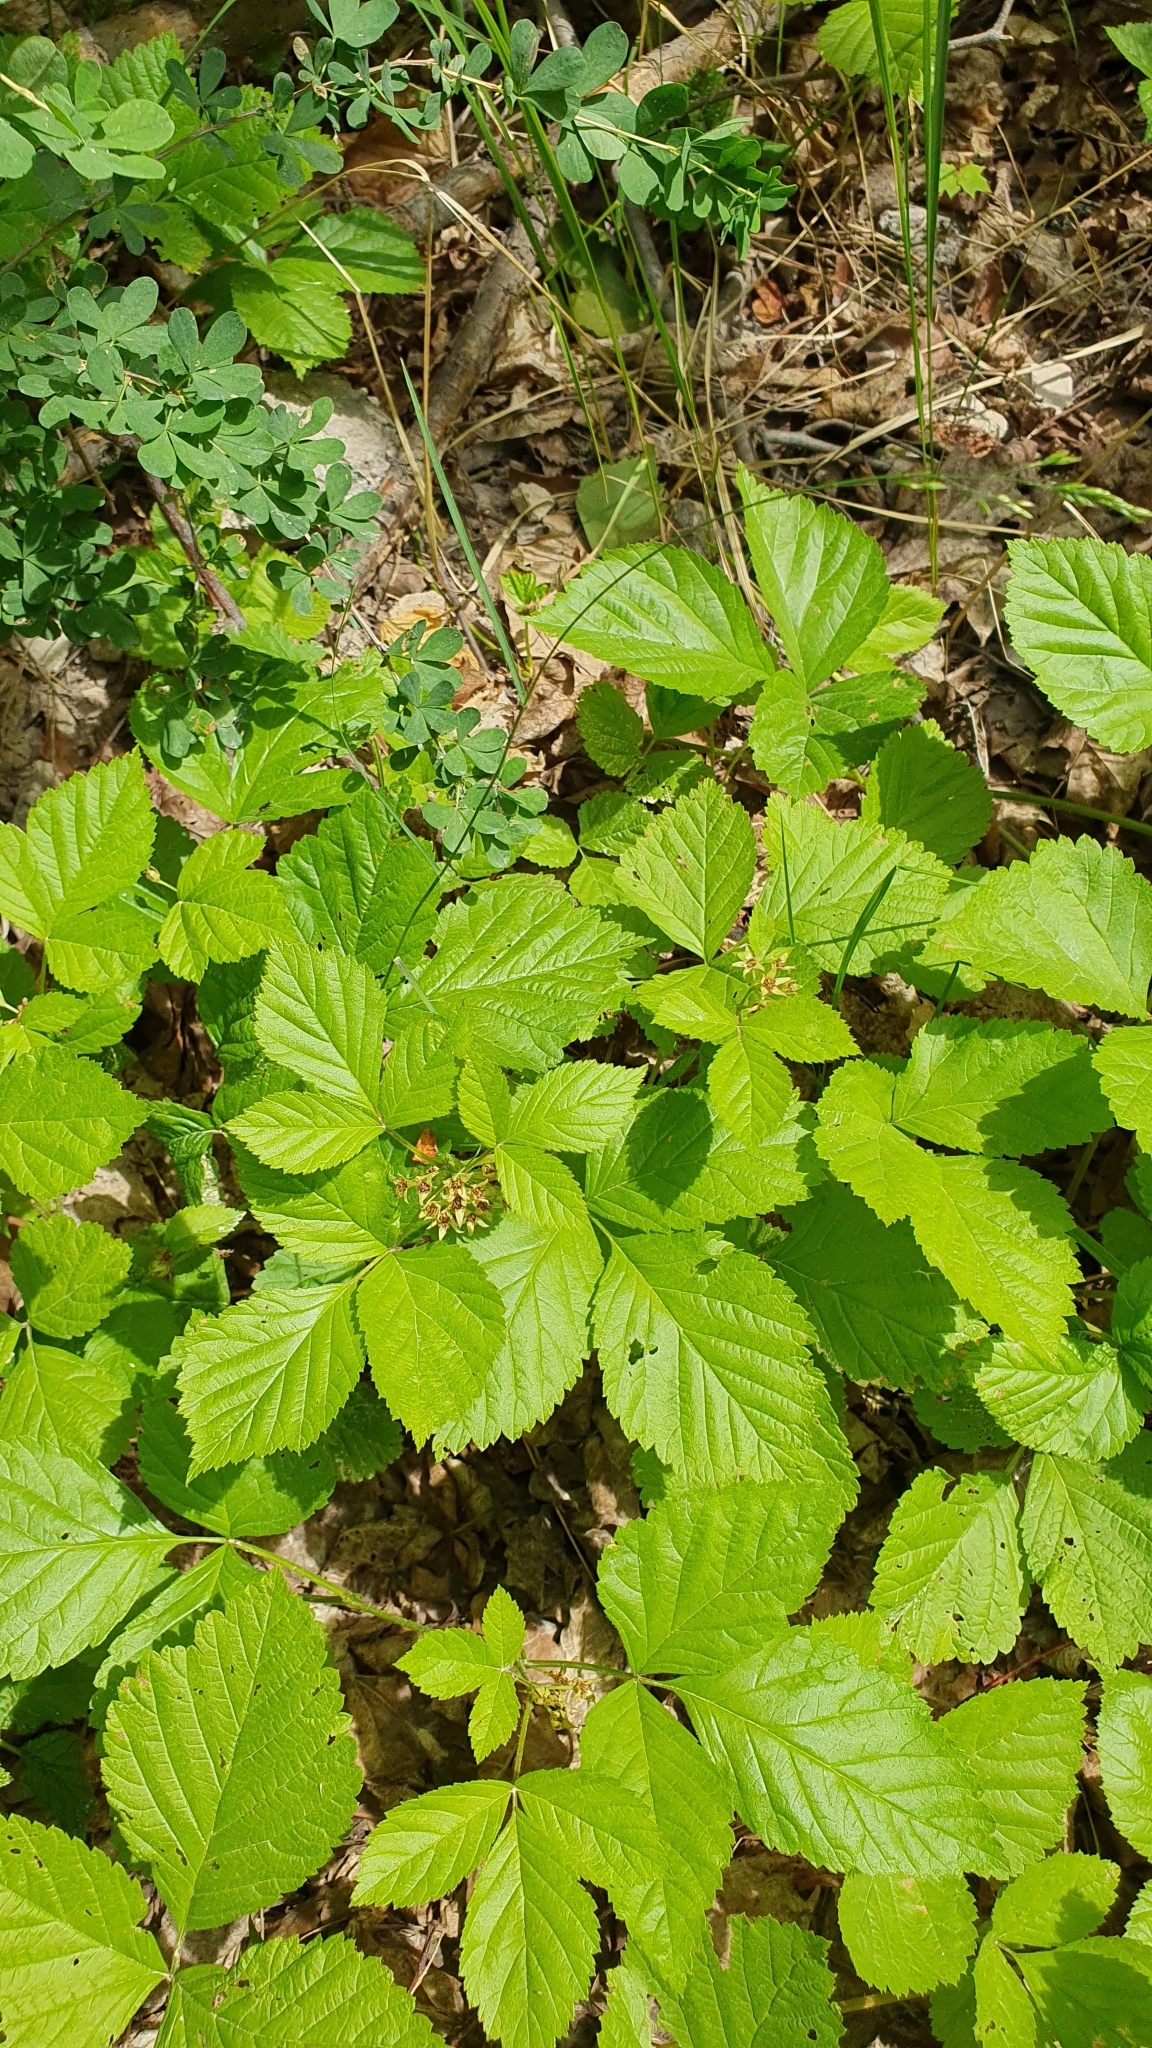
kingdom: Plantae
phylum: Tracheophyta
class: Magnoliopsida
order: Rosales
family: Rosaceae
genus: Rubus
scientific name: Rubus saxatilis
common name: Stone bramble
